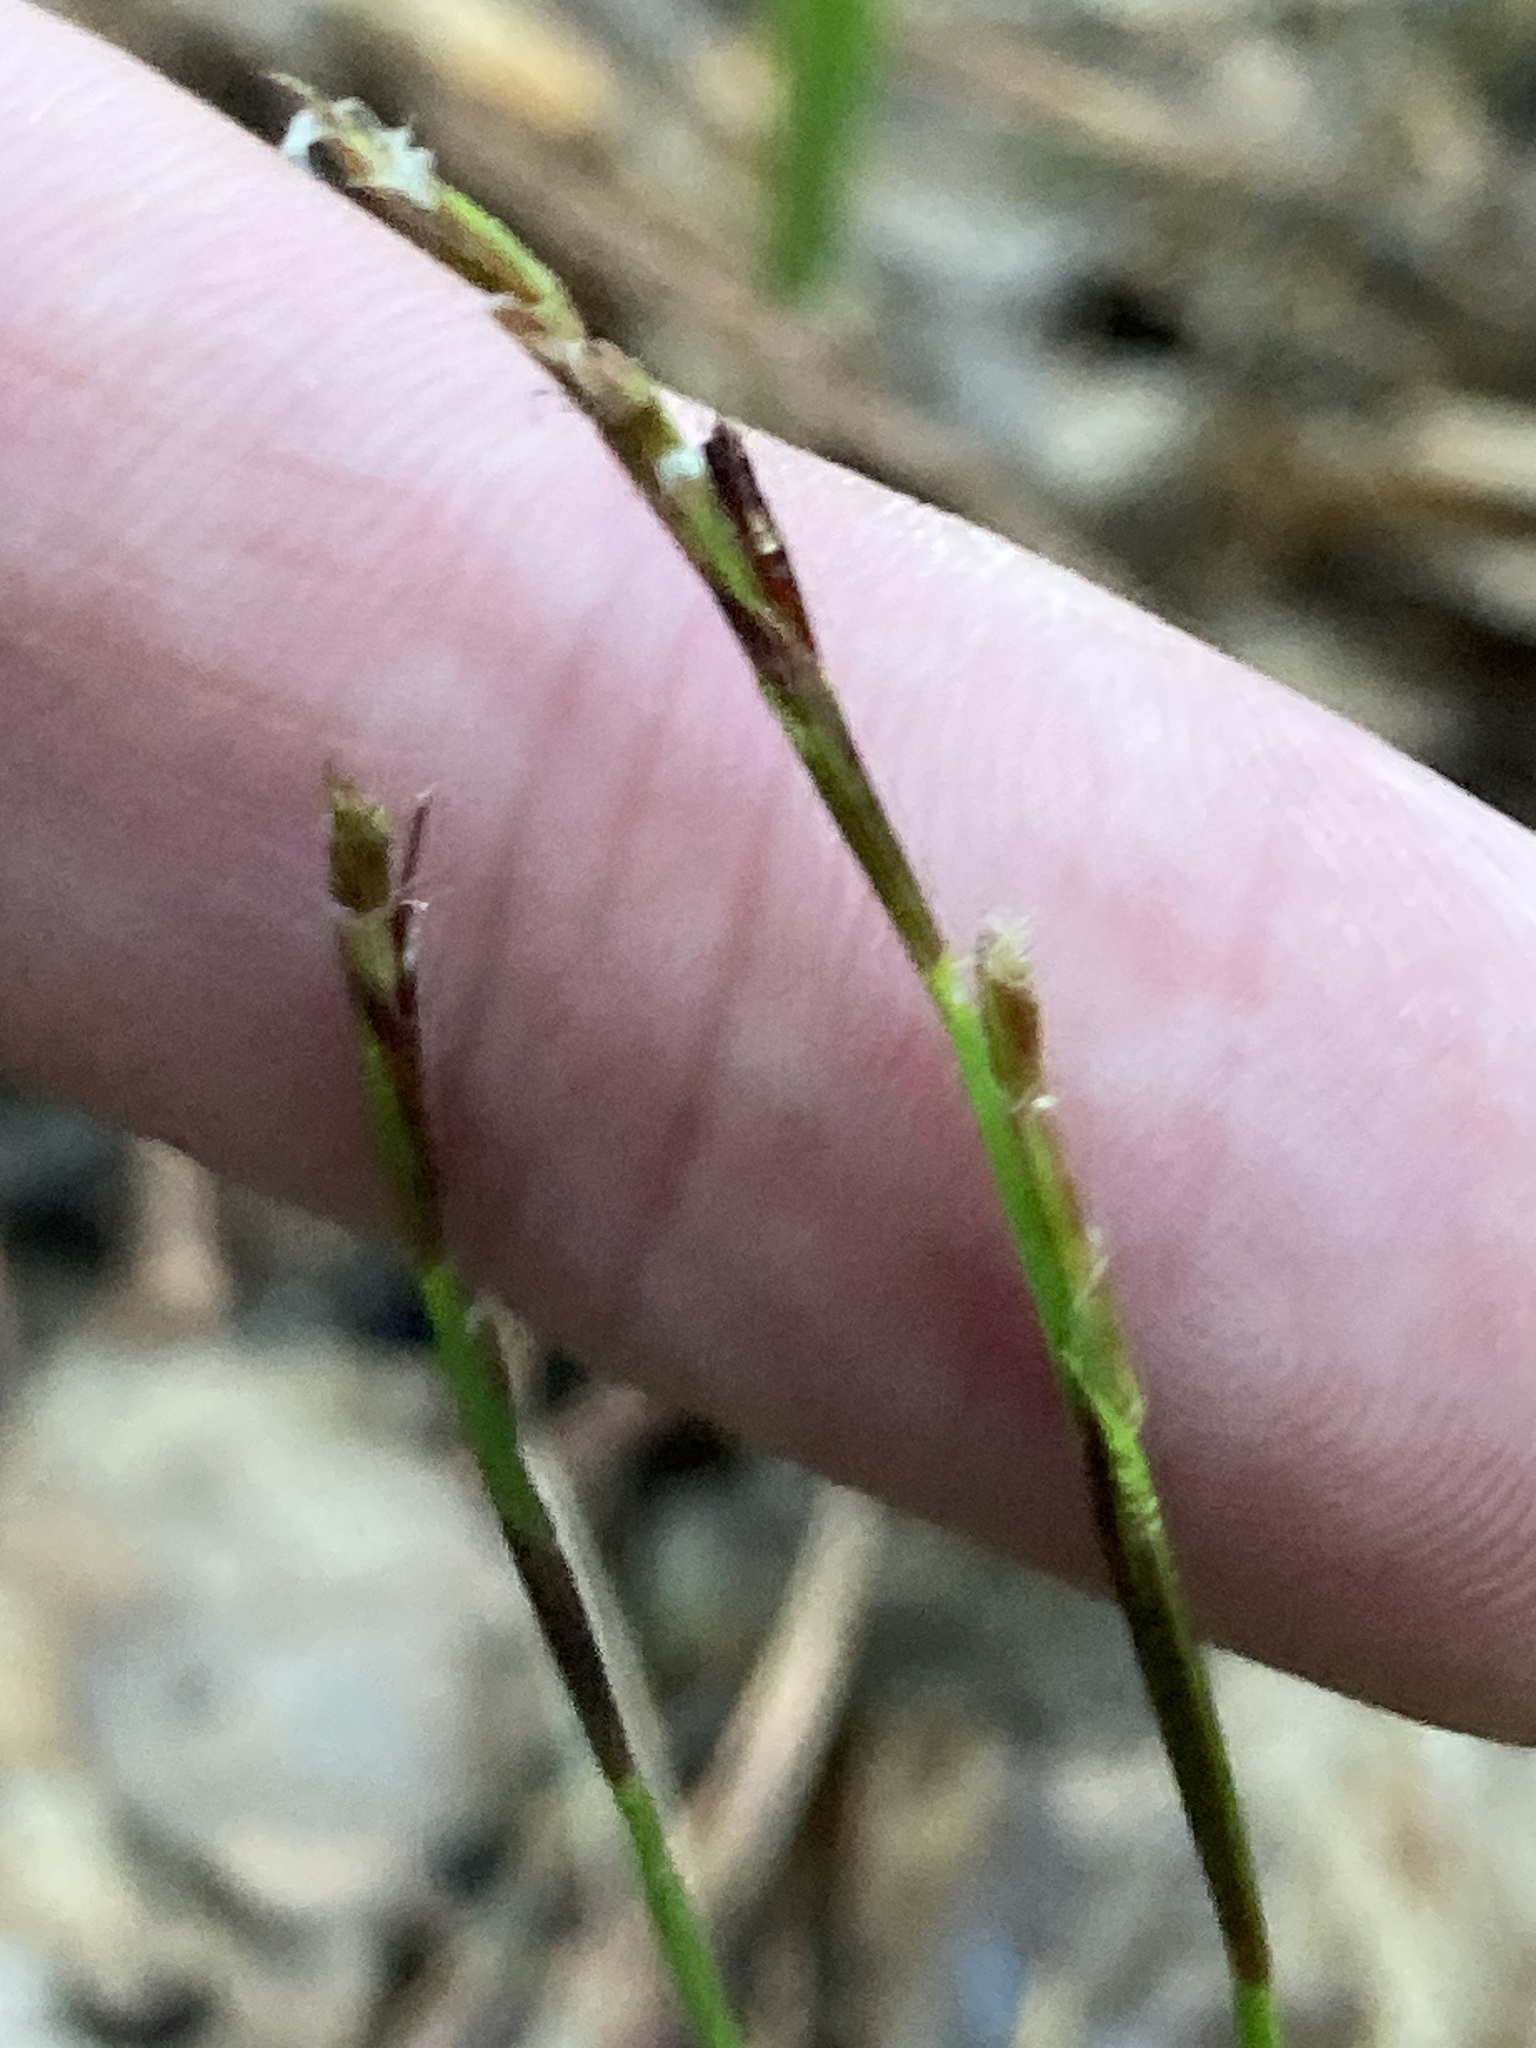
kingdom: Plantae
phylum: Tracheophyta
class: Liliopsida
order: Poales
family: Cyperaceae
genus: Carex
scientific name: Carex digitata
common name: Fingered sedge
